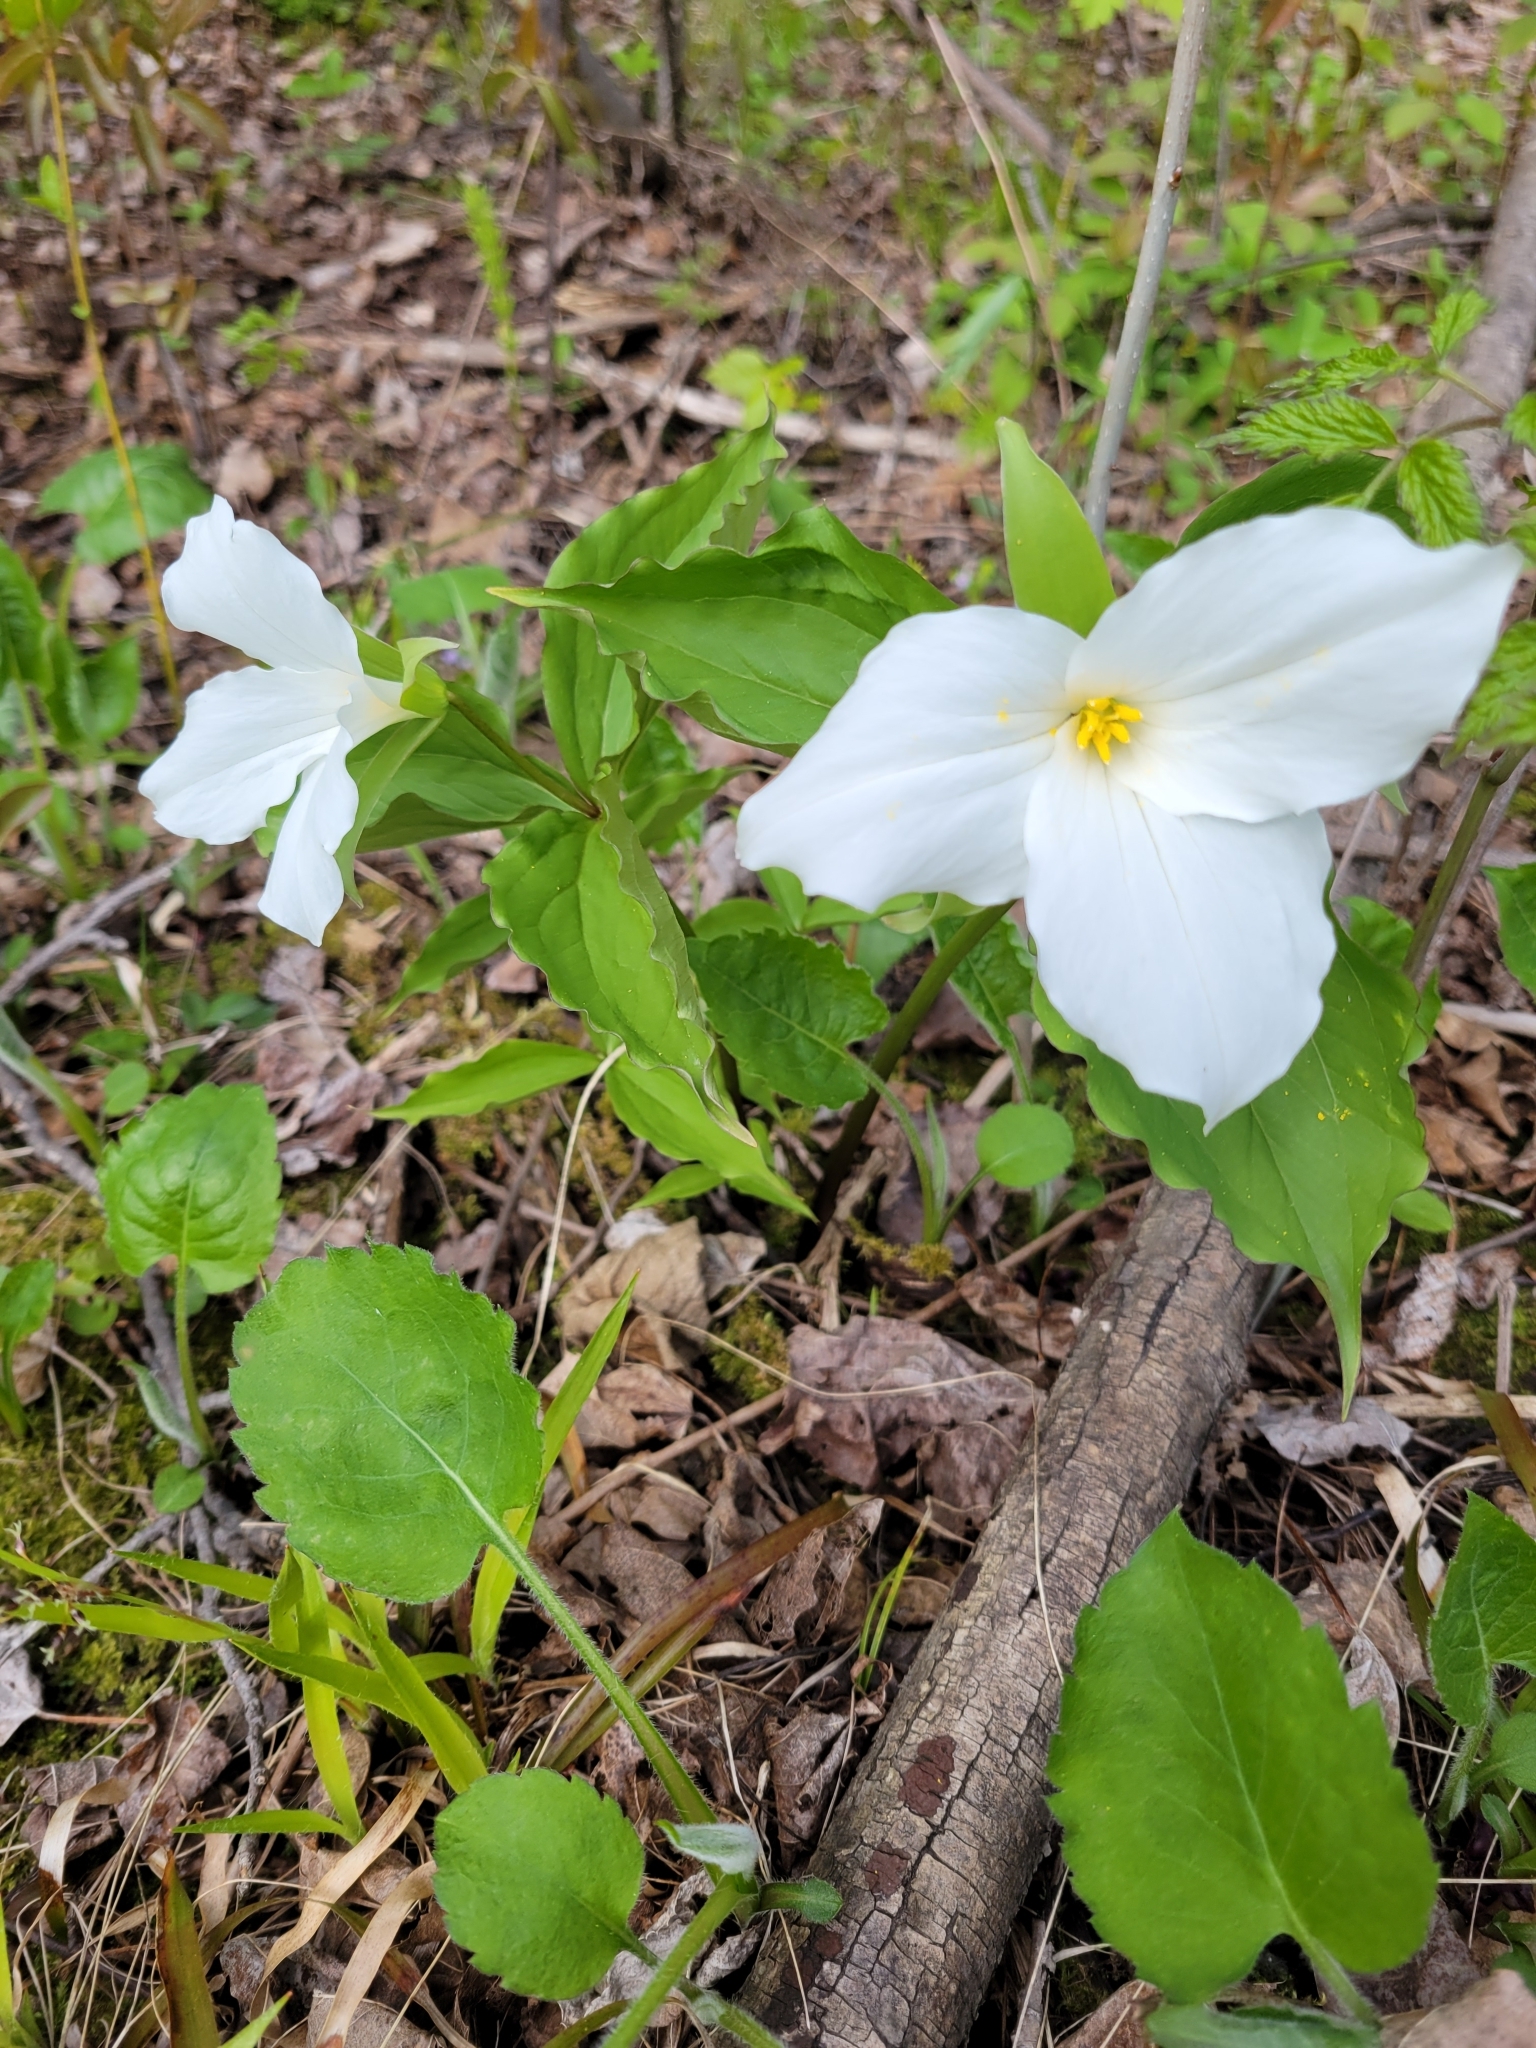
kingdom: Plantae
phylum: Tracheophyta
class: Liliopsida
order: Liliales
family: Melanthiaceae
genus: Trillium
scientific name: Trillium grandiflorum
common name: Great white trillium
